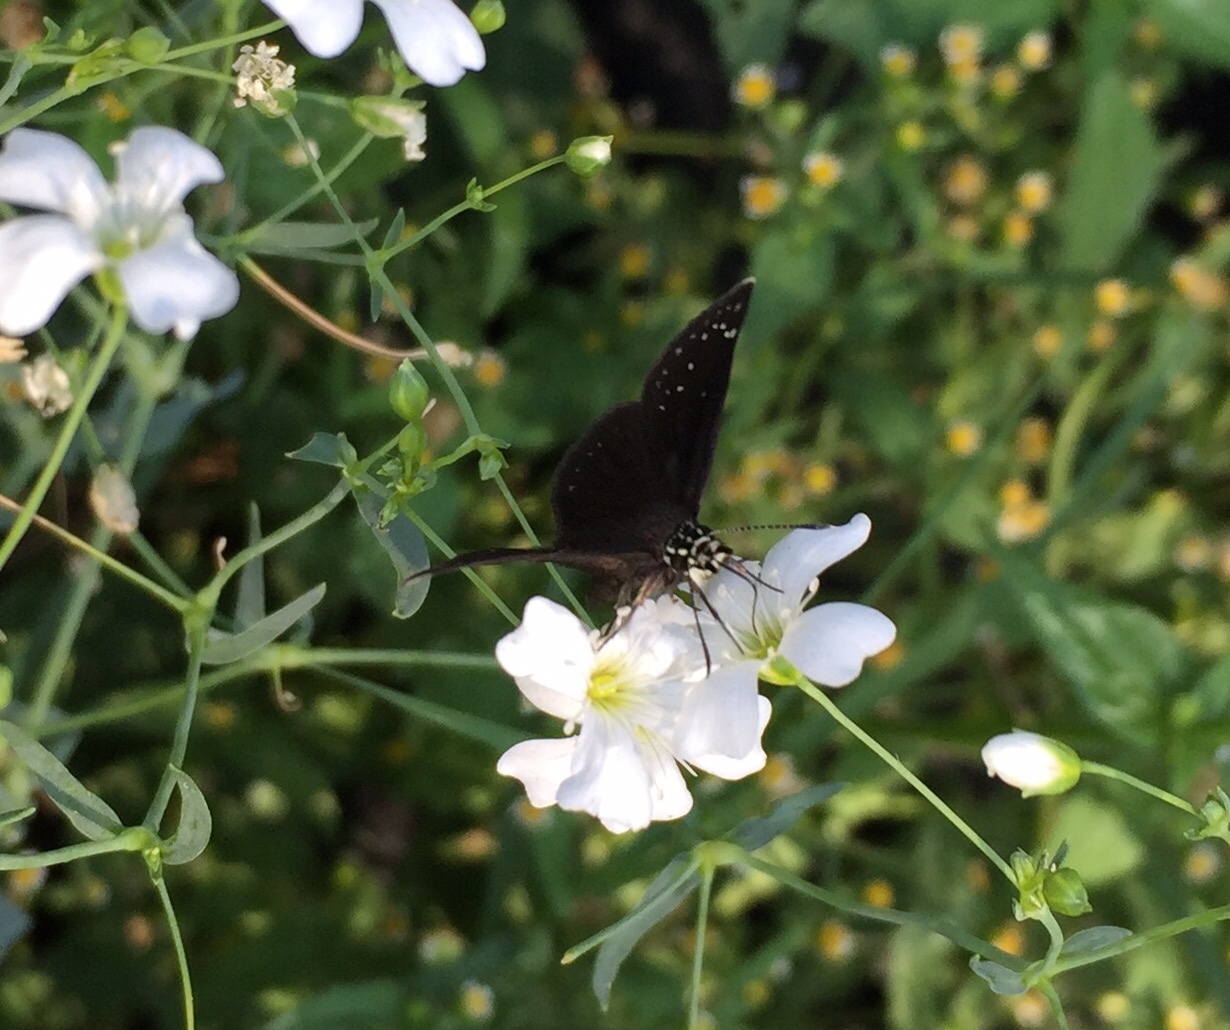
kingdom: Animalia
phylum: Arthropoda
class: Insecta
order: Lepidoptera
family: Hesperiidae
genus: Pholisora
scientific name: Pholisora catullus
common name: Common sootywing
